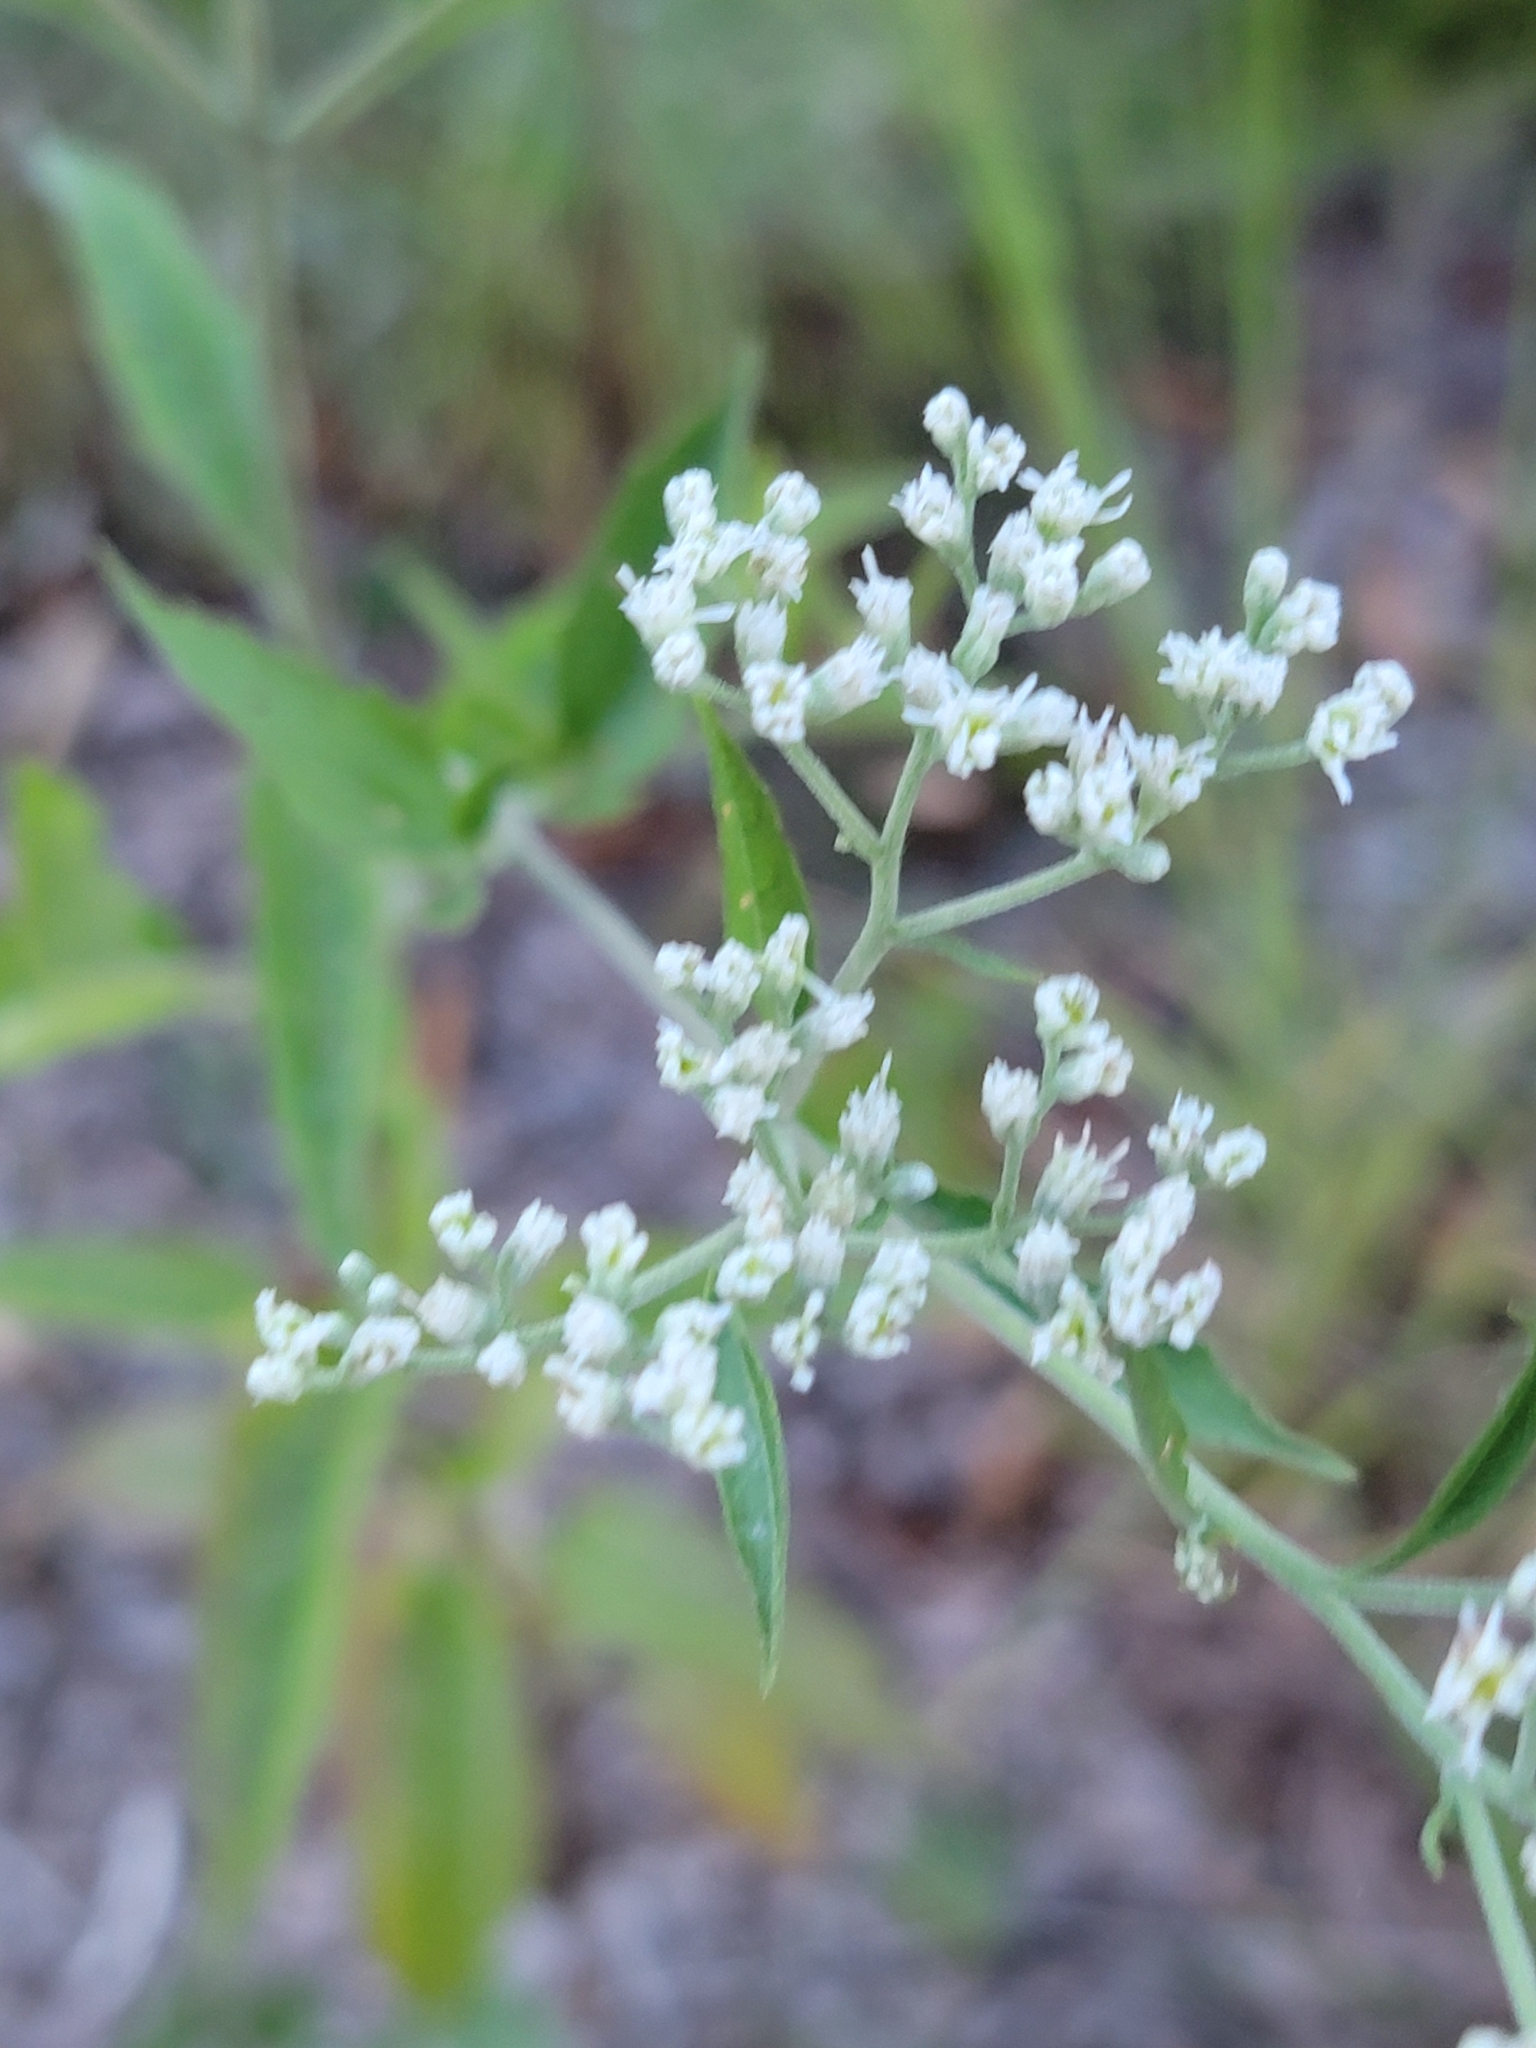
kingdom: Plantae
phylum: Tracheophyta
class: Magnoliopsida
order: Asterales
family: Asteraceae
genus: Eupatorium
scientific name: Eupatorium serotinum
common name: Late boneset
